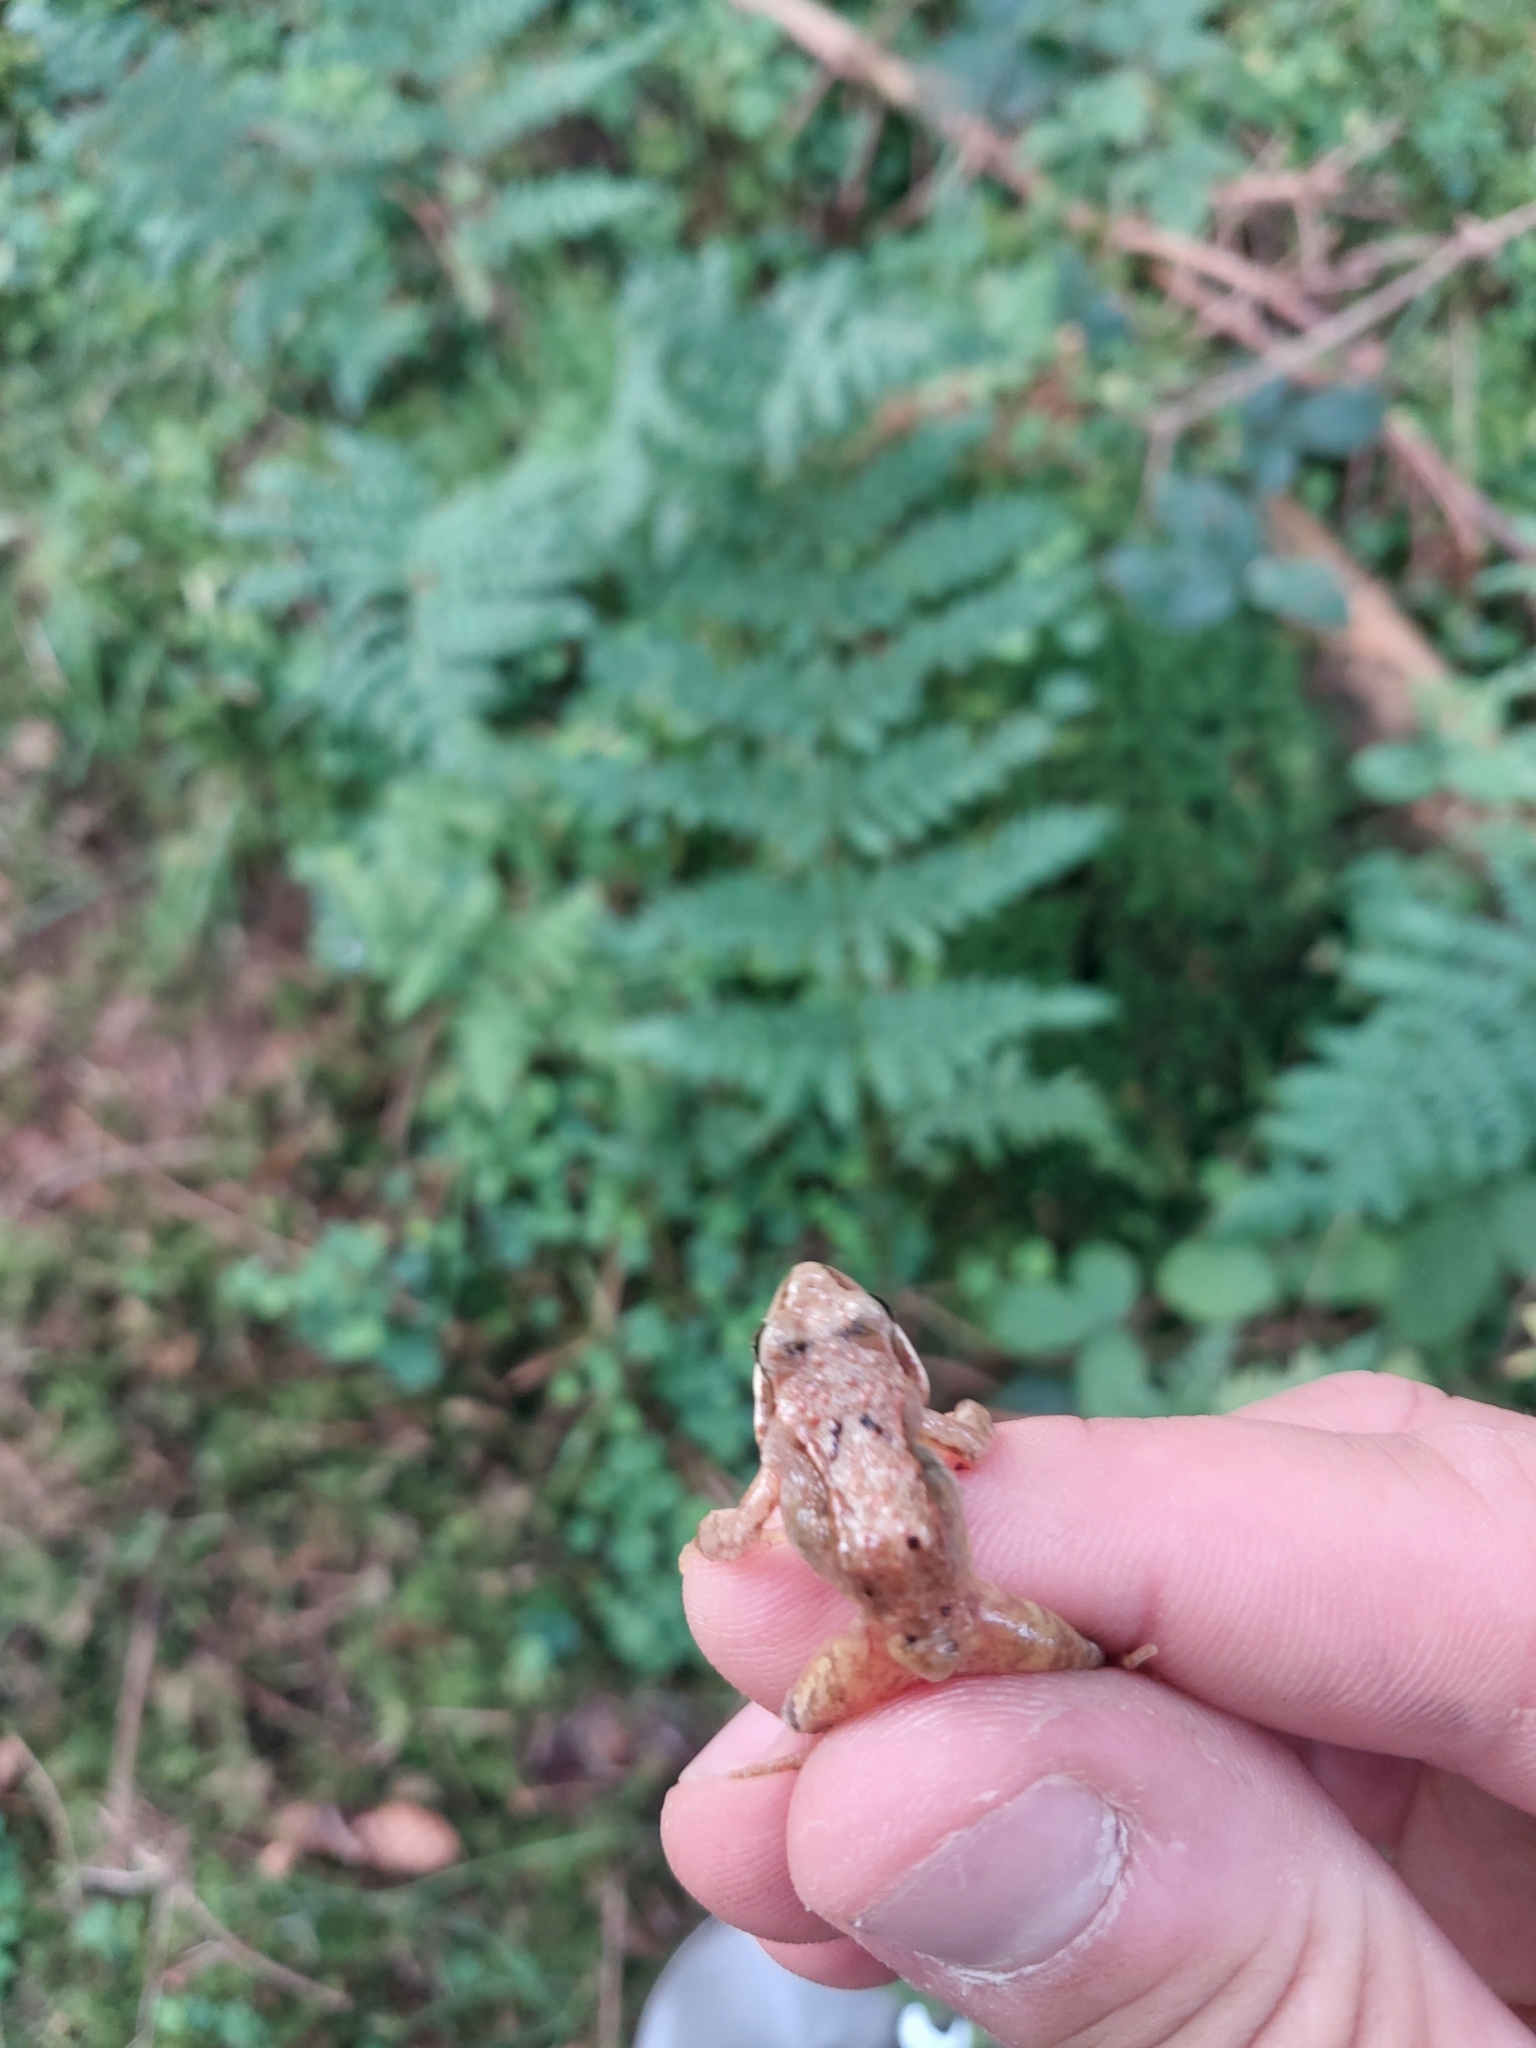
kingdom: Animalia
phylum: Chordata
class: Amphibia
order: Anura
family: Ranidae
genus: Rana
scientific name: Rana temporaria
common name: Common frog
